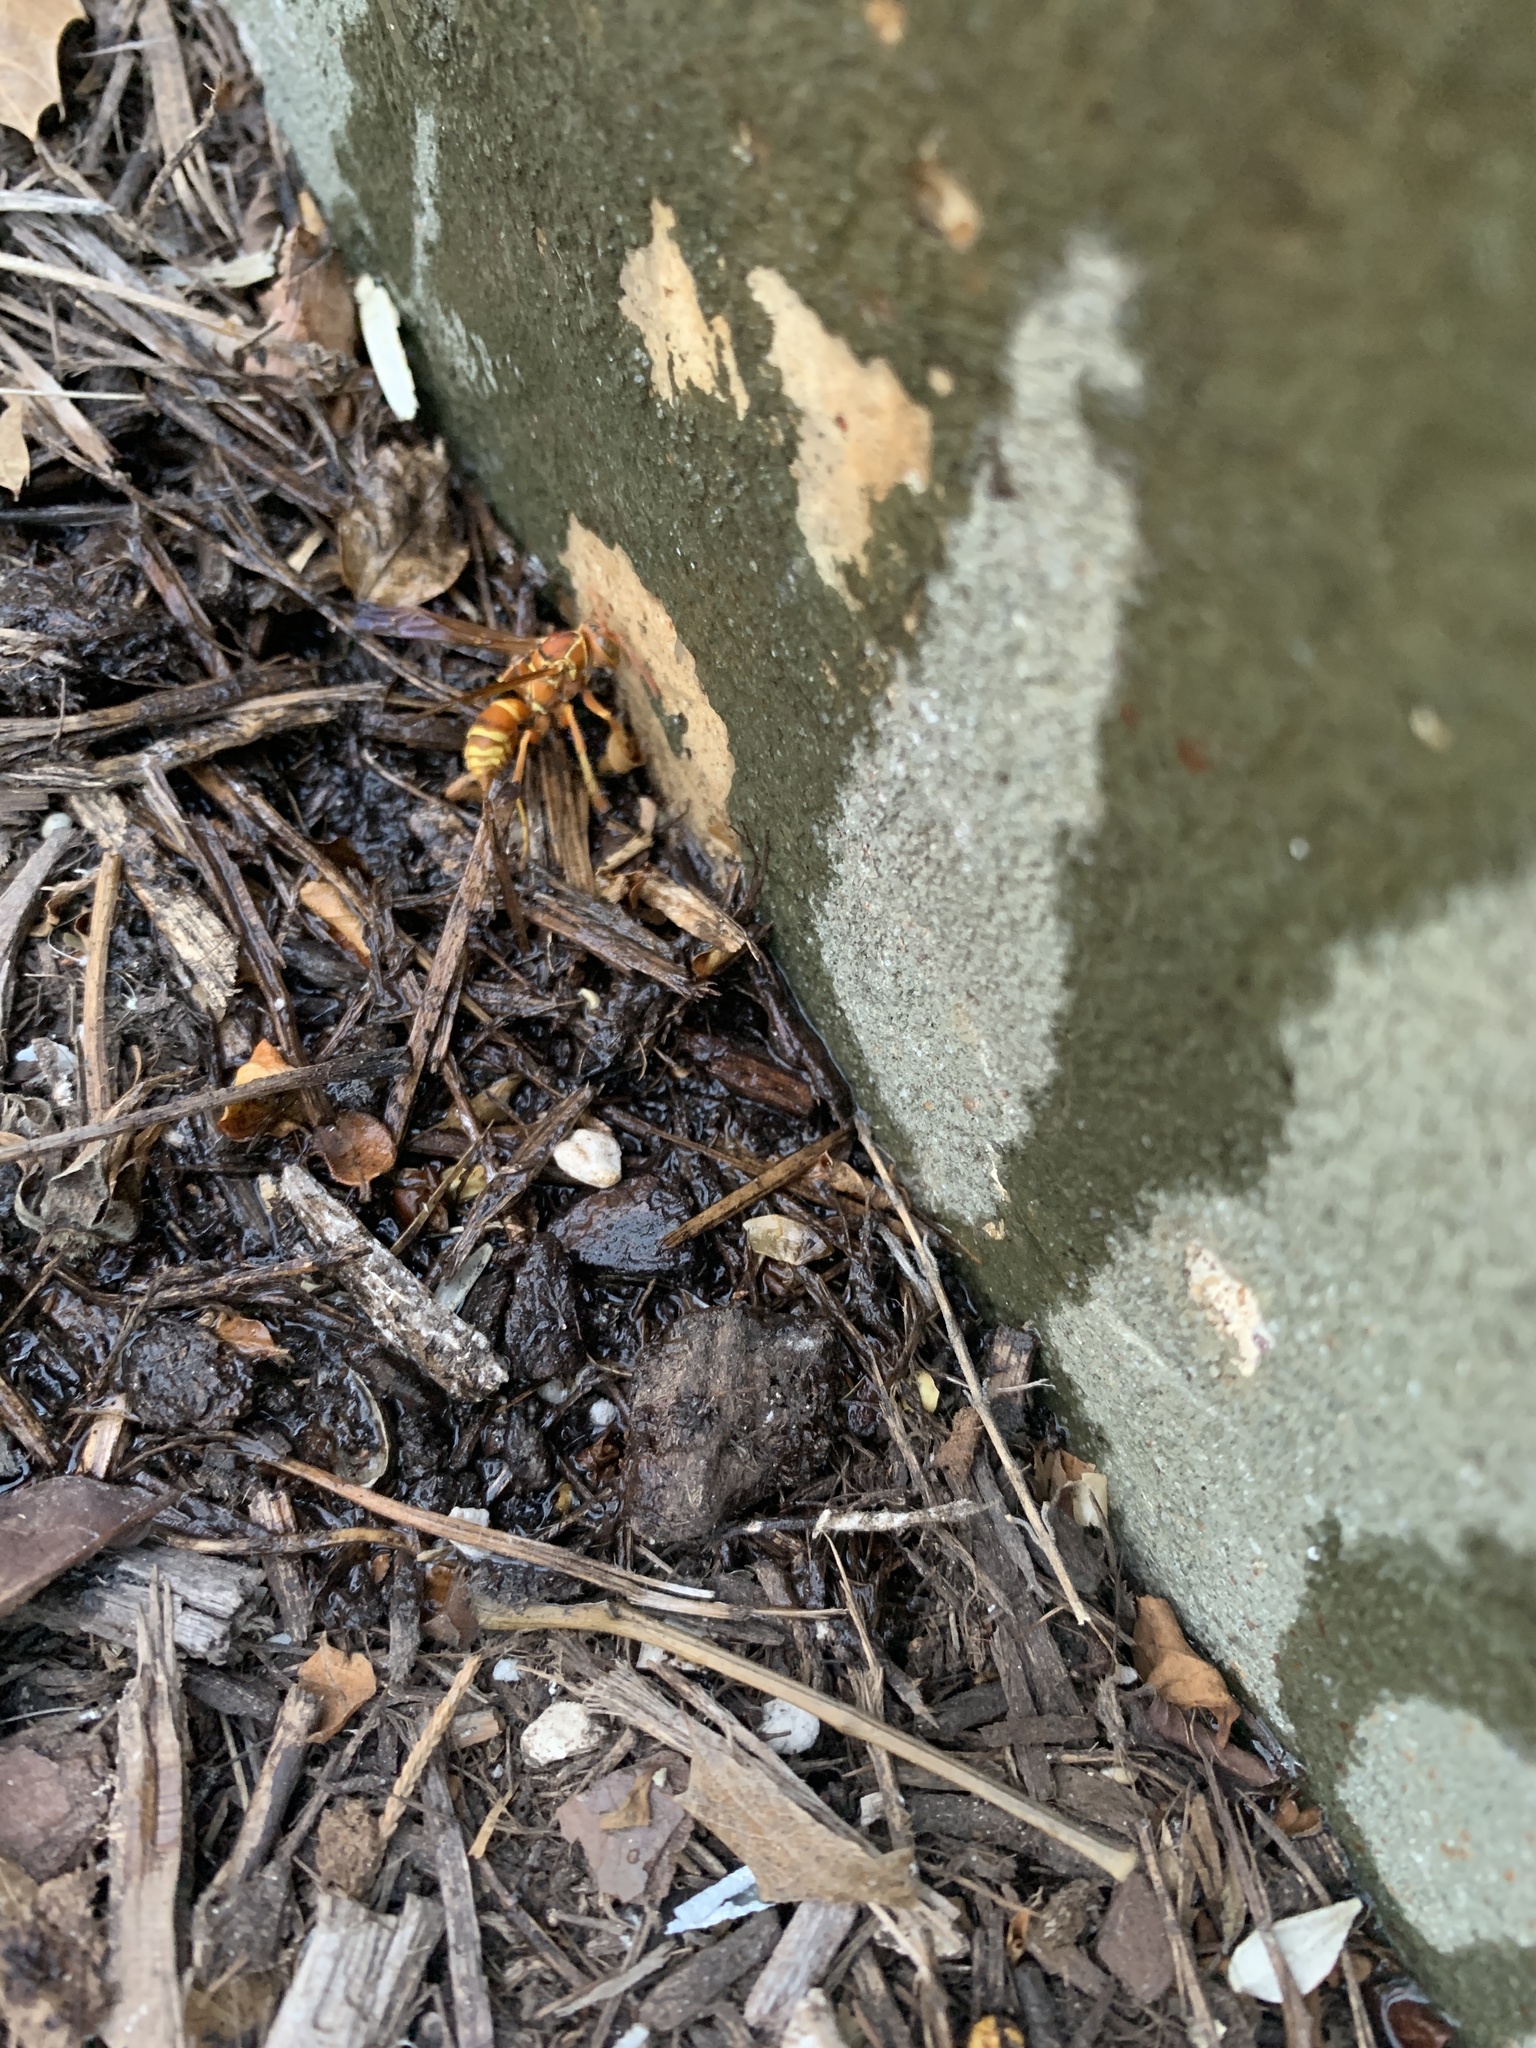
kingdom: Animalia
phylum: Arthropoda
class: Insecta
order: Hymenoptera
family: Eumenidae
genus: Polistes
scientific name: Polistes dorsalis
